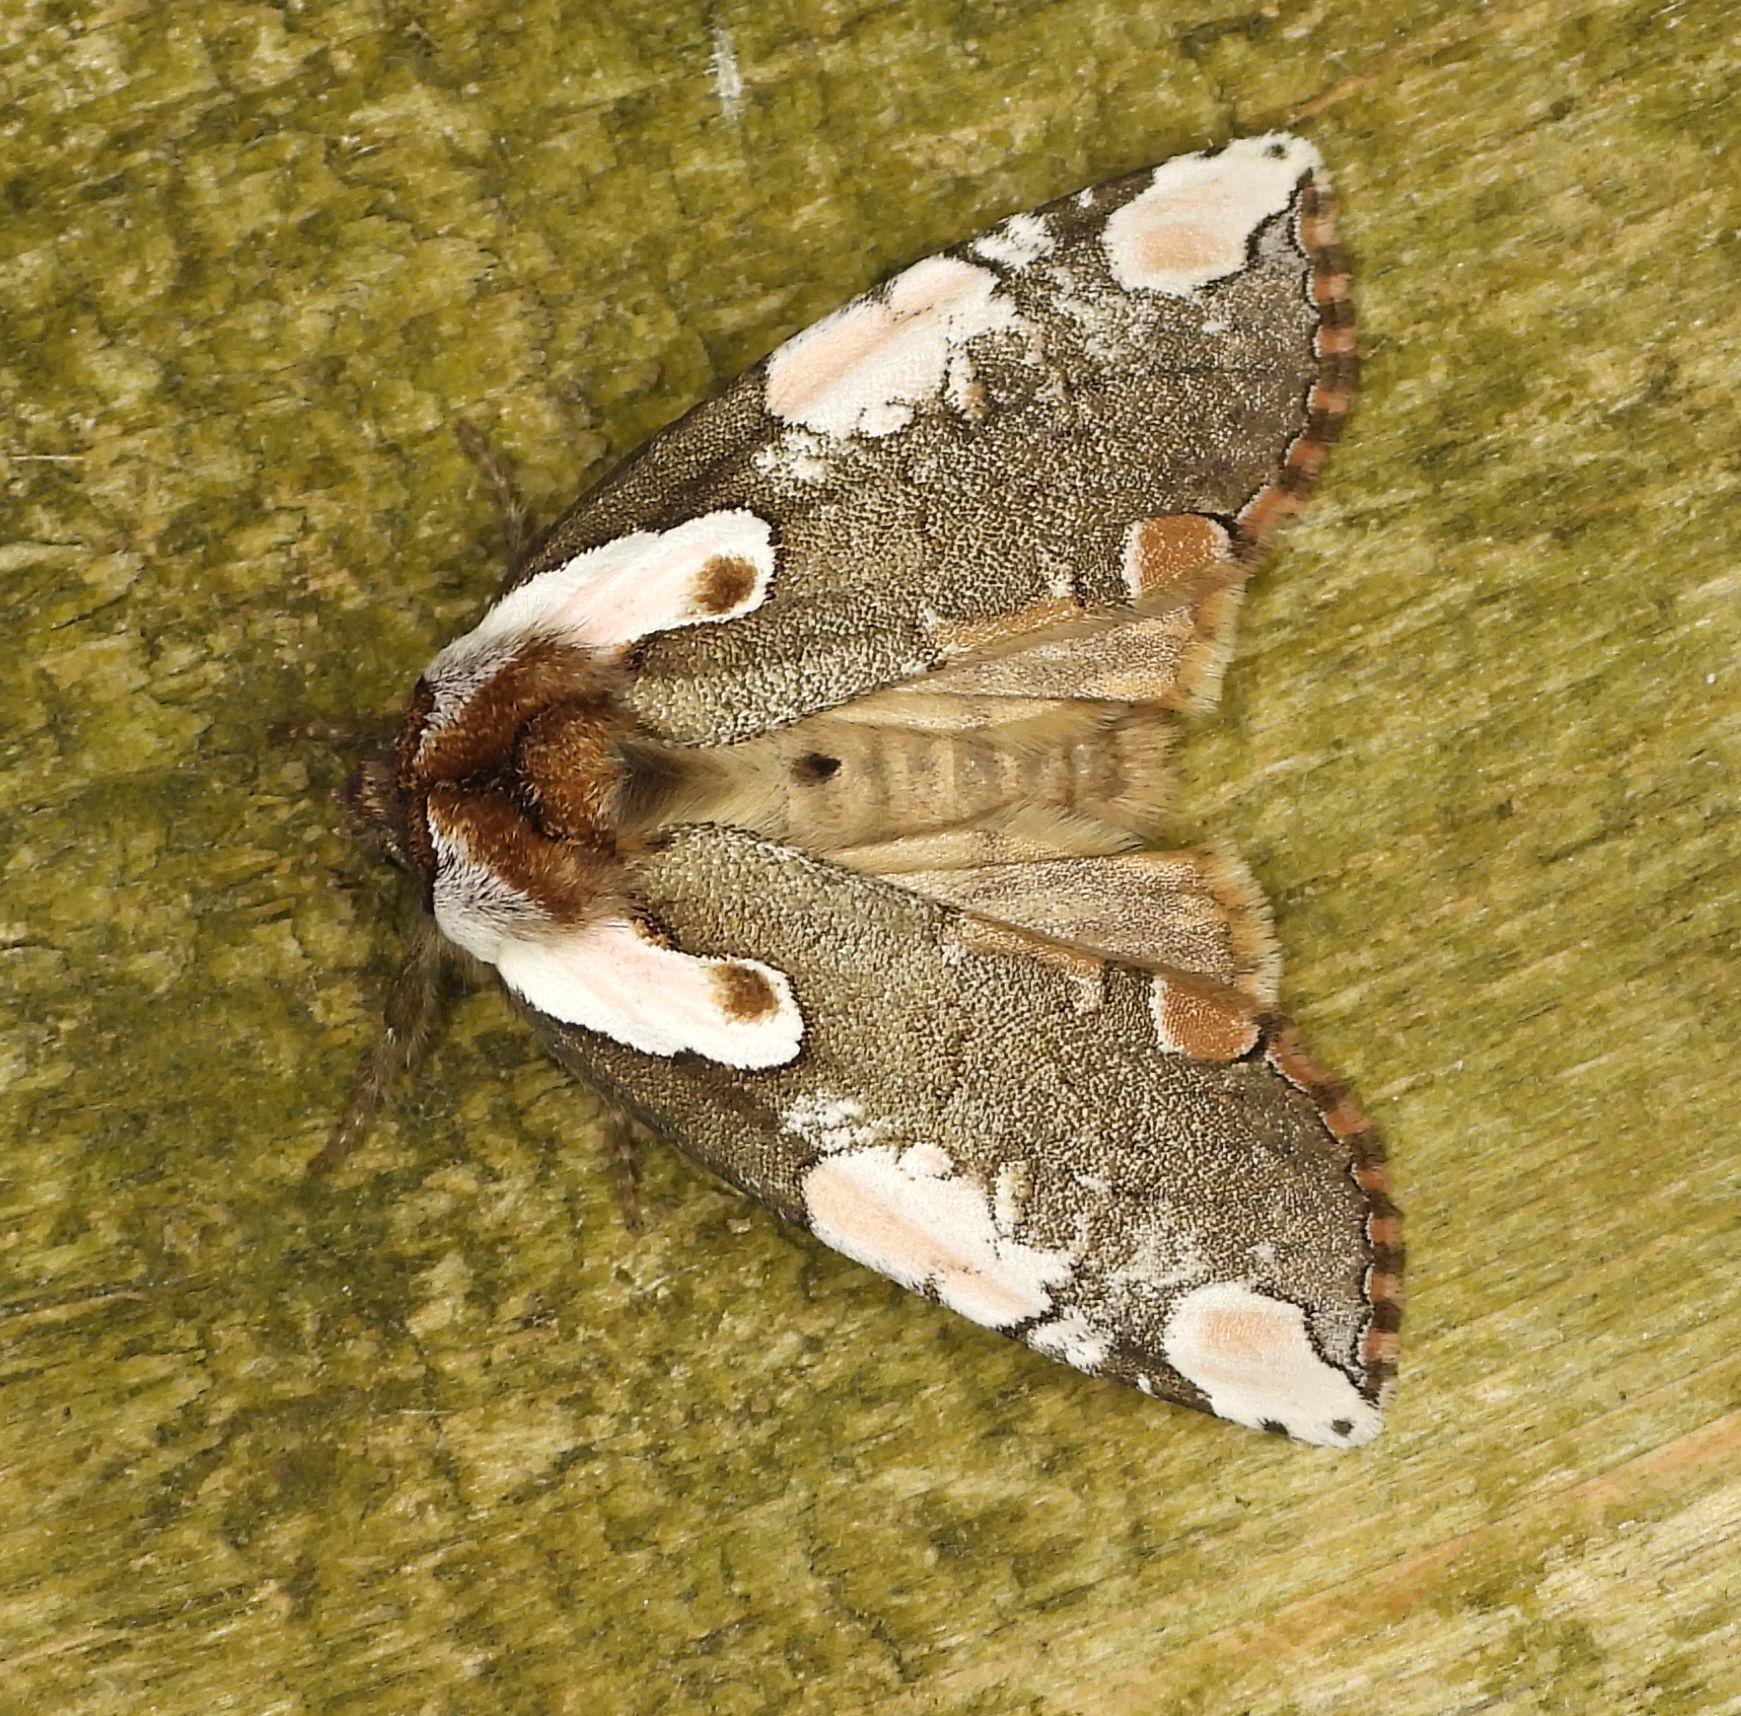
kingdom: Animalia
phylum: Arthropoda
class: Insecta
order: Lepidoptera
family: Drepanidae
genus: Euthyatira
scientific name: Euthyatira pudens
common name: Dogwood thyatirid moth
